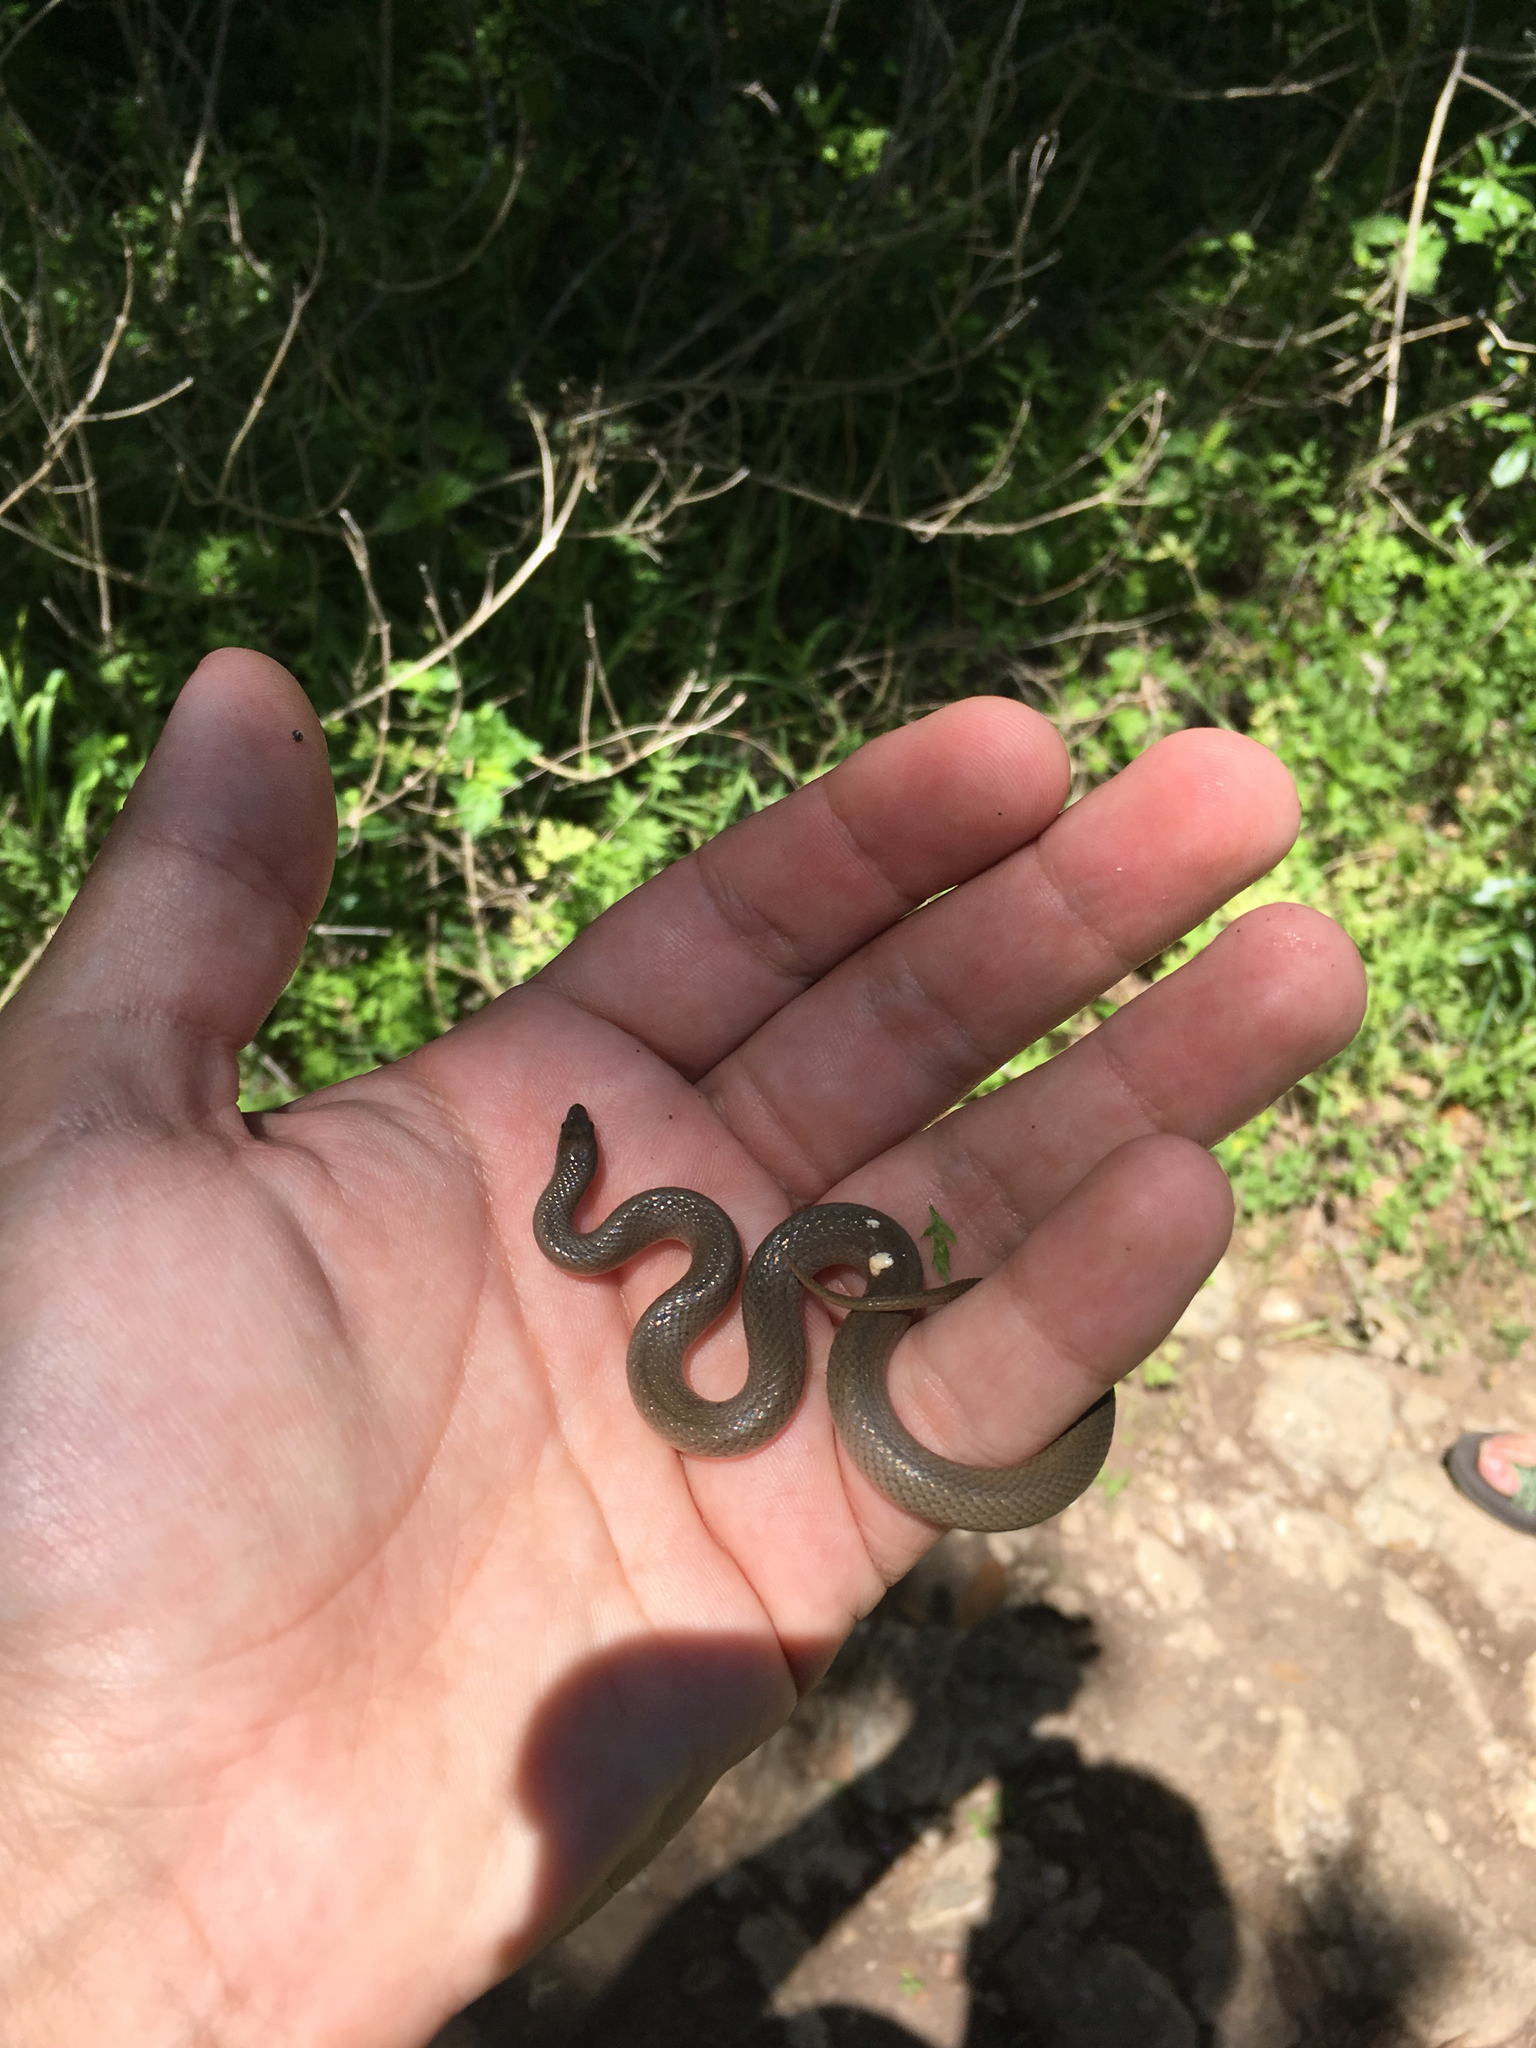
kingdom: Animalia
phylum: Chordata
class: Squamata
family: Colubridae
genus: Haldea
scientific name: Haldea striatula
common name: Rough earth snake
